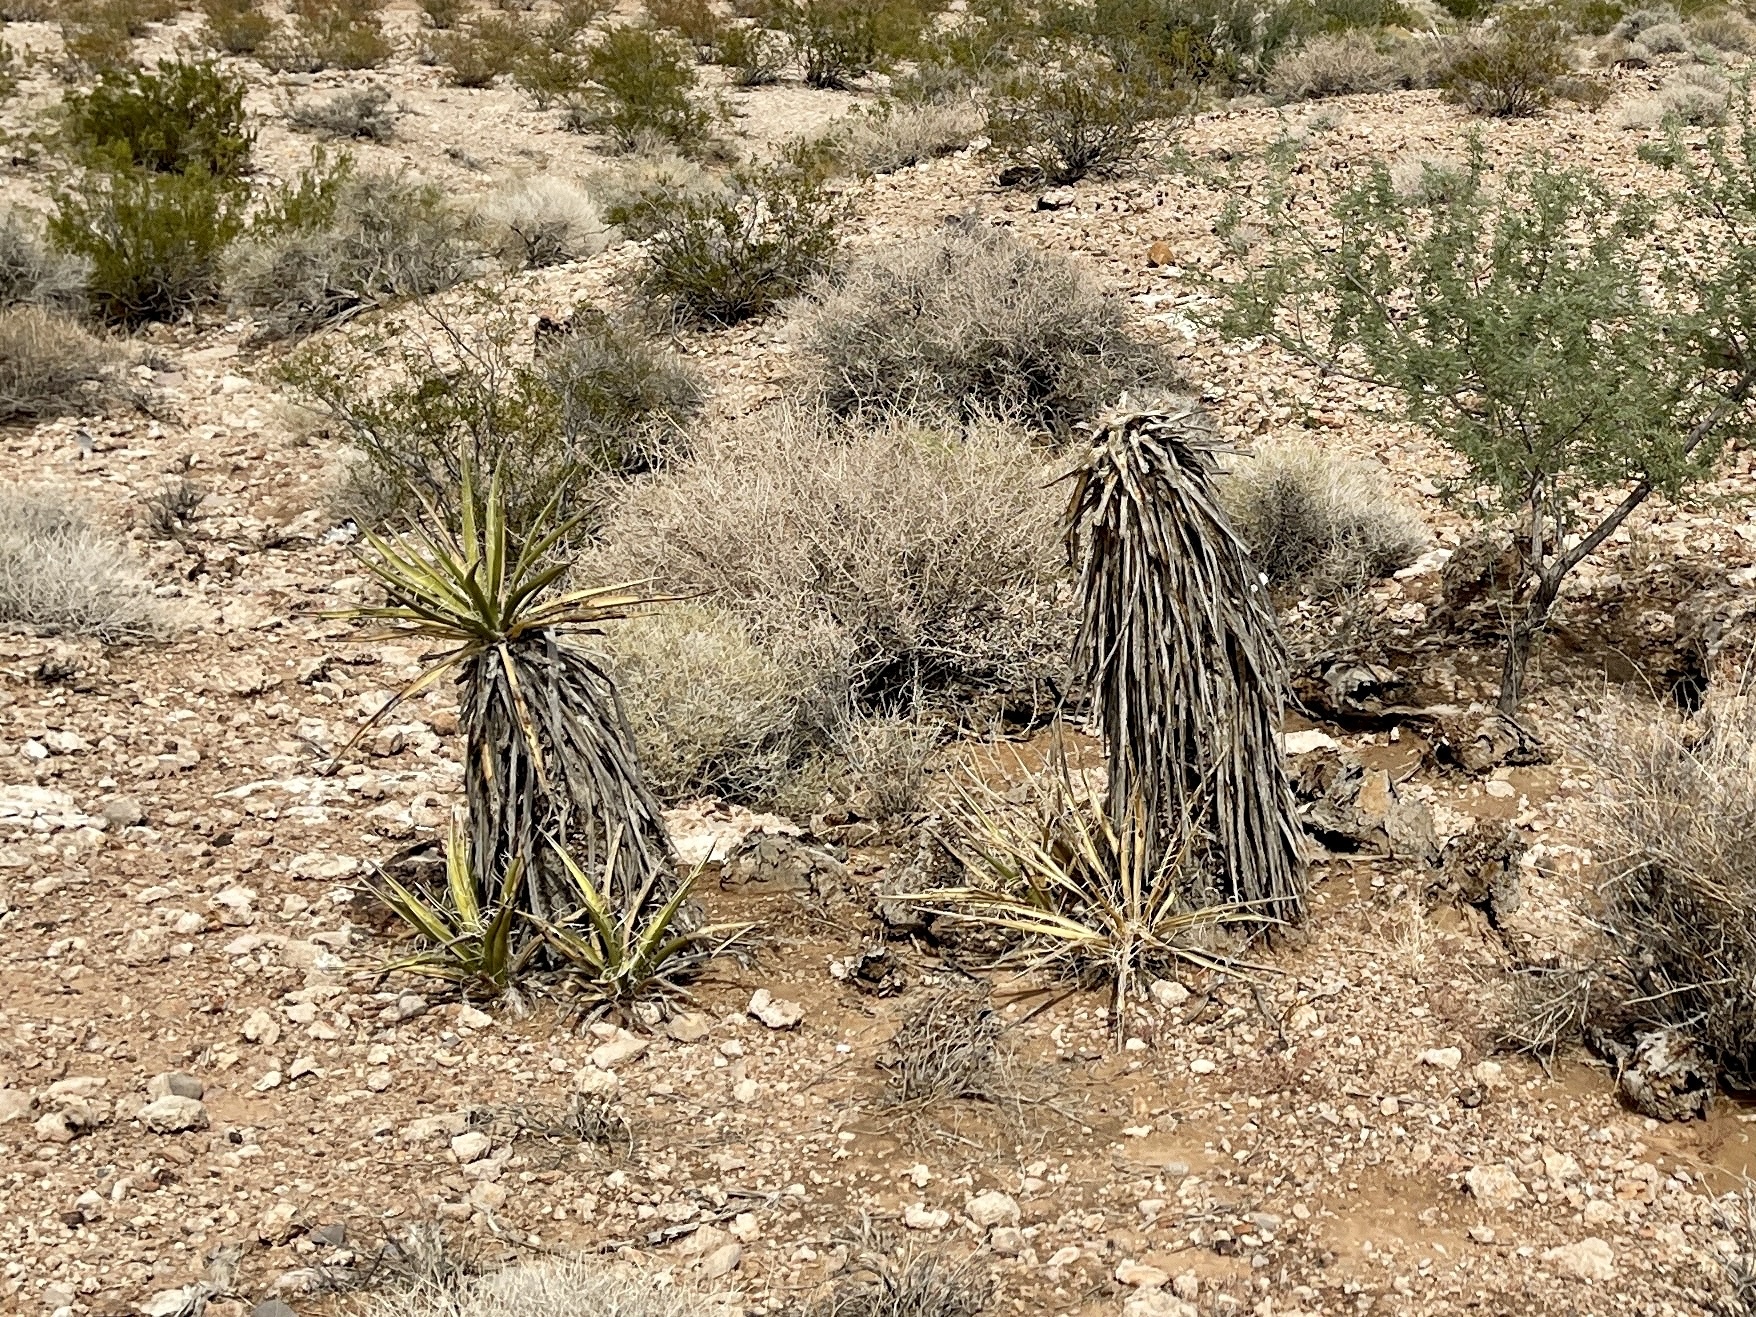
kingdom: Plantae
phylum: Tracheophyta
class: Liliopsida
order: Asparagales
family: Asparagaceae
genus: Yucca
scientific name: Yucca schidigera
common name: Mojave yucca
